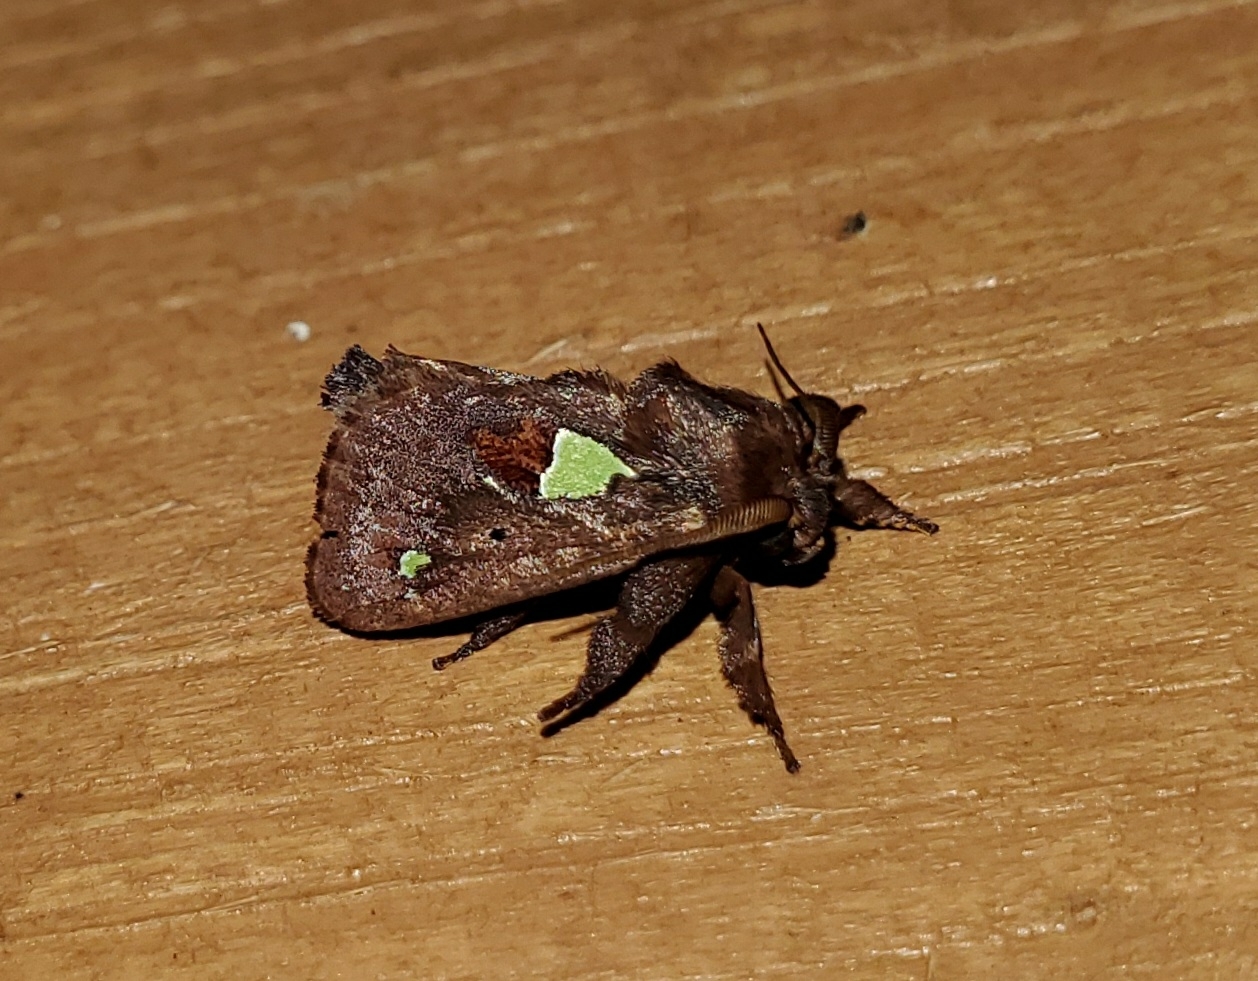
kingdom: Animalia
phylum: Arthropoda
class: Insecta
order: Lepidoptera
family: Limacodidae
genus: Euclea
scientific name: Euclea delphinii
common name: Spiny oak-slug moth
